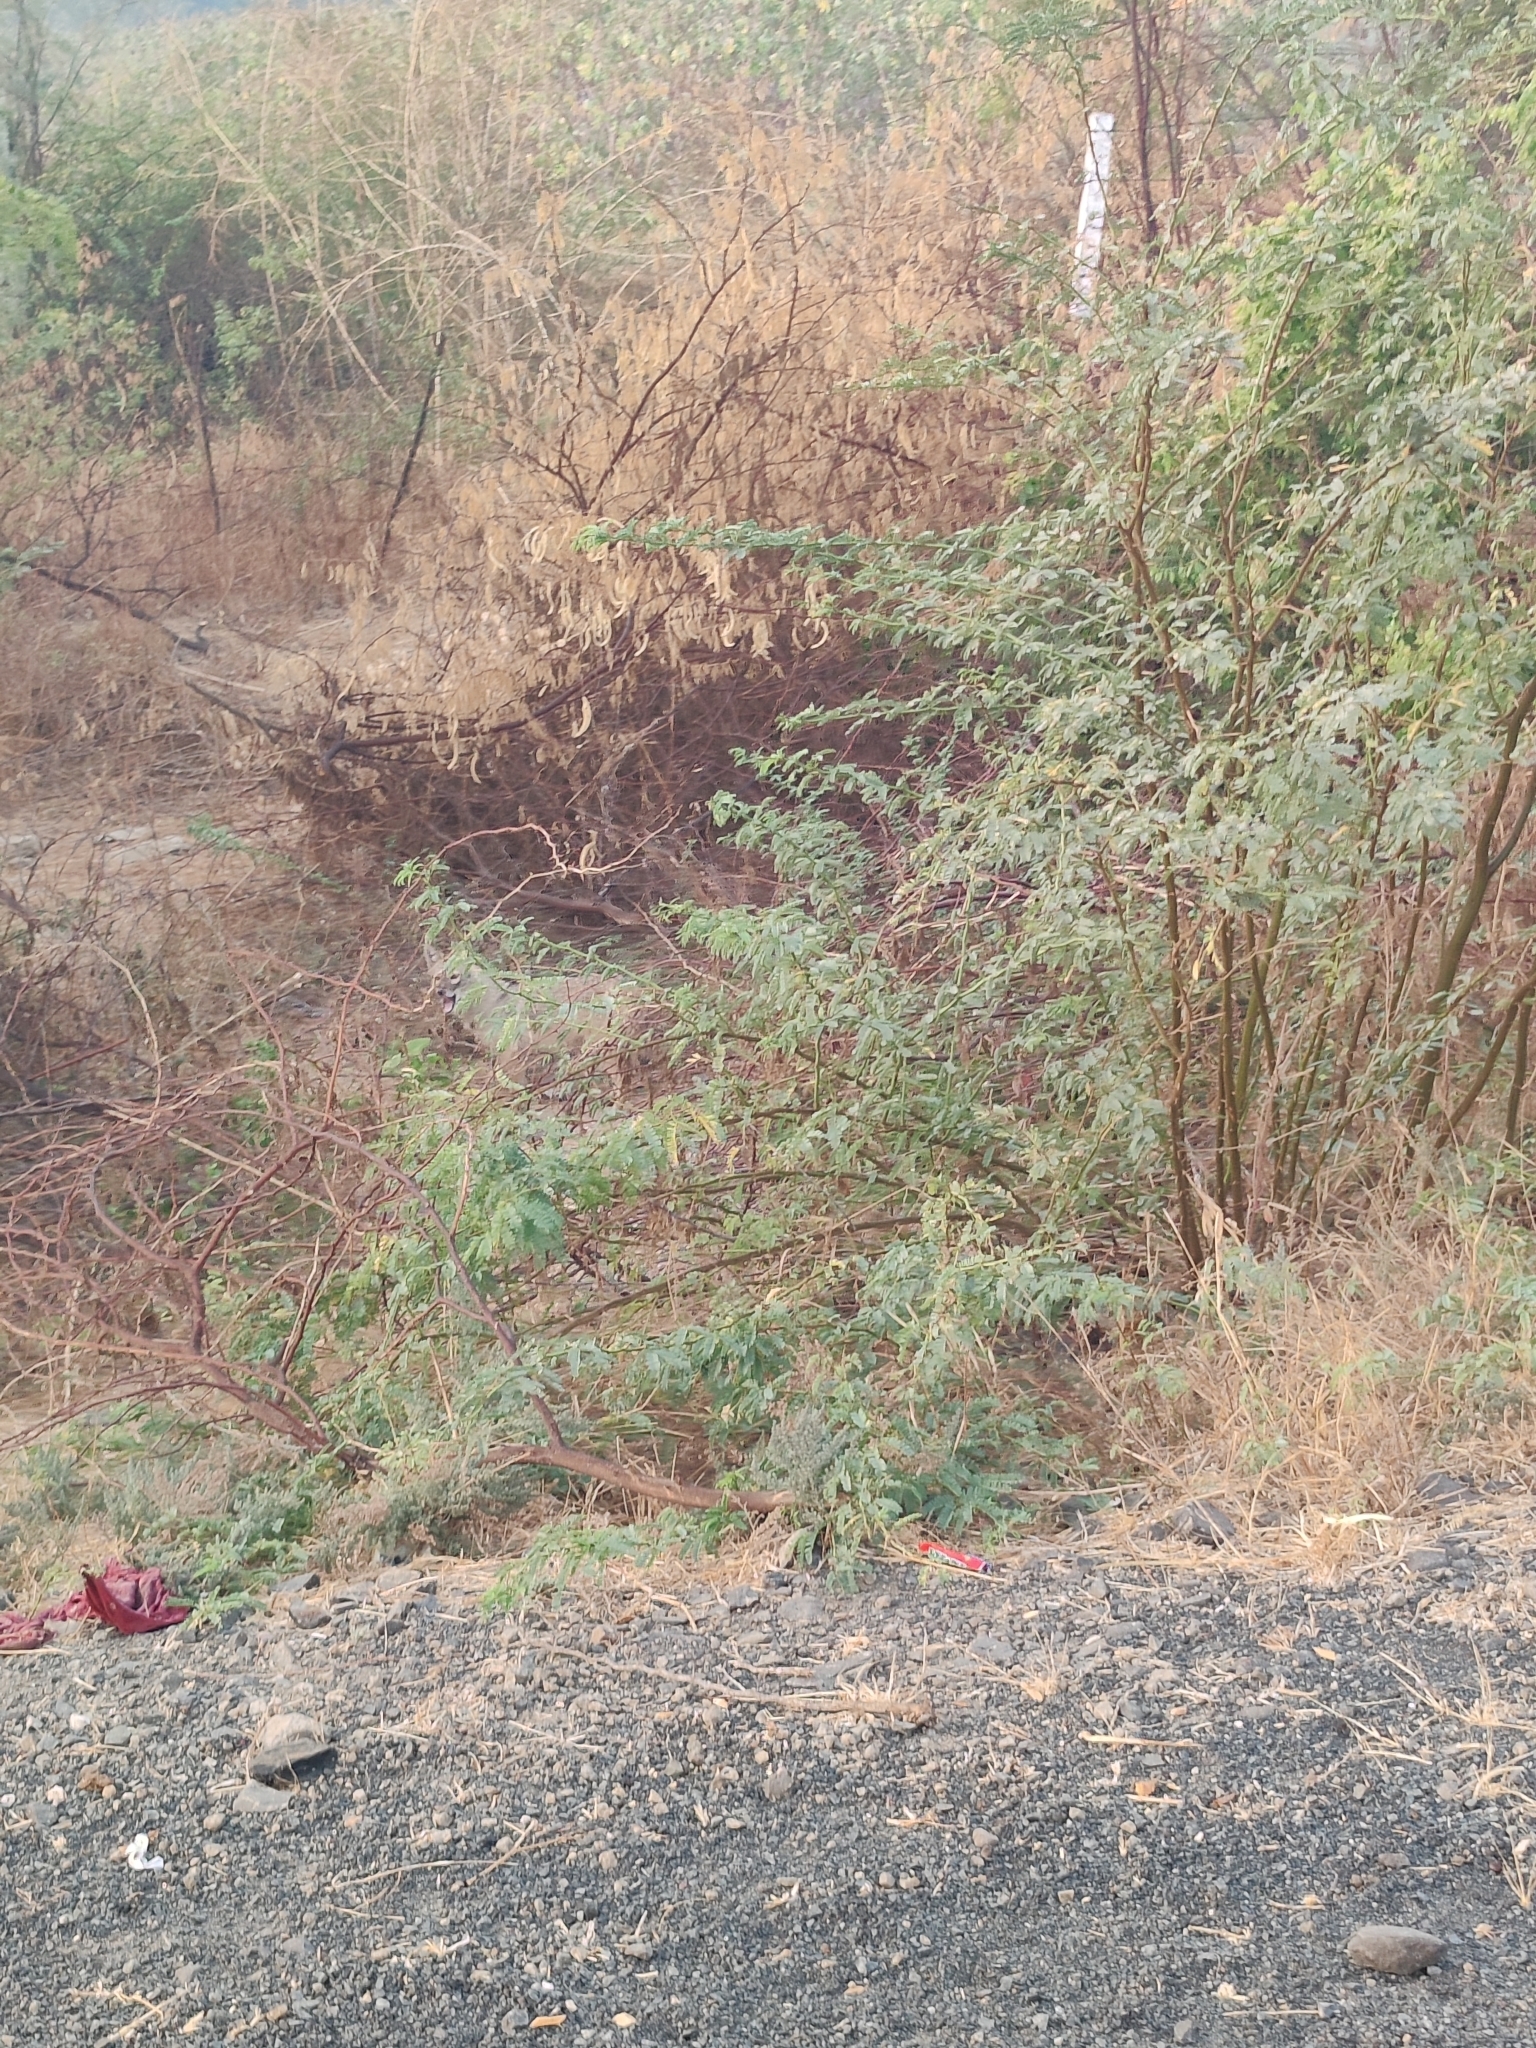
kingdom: Animalia
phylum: Chordata
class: Mammalia
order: Carnivora
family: Canidae
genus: Canis
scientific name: Canis aureus
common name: Golden jackal
